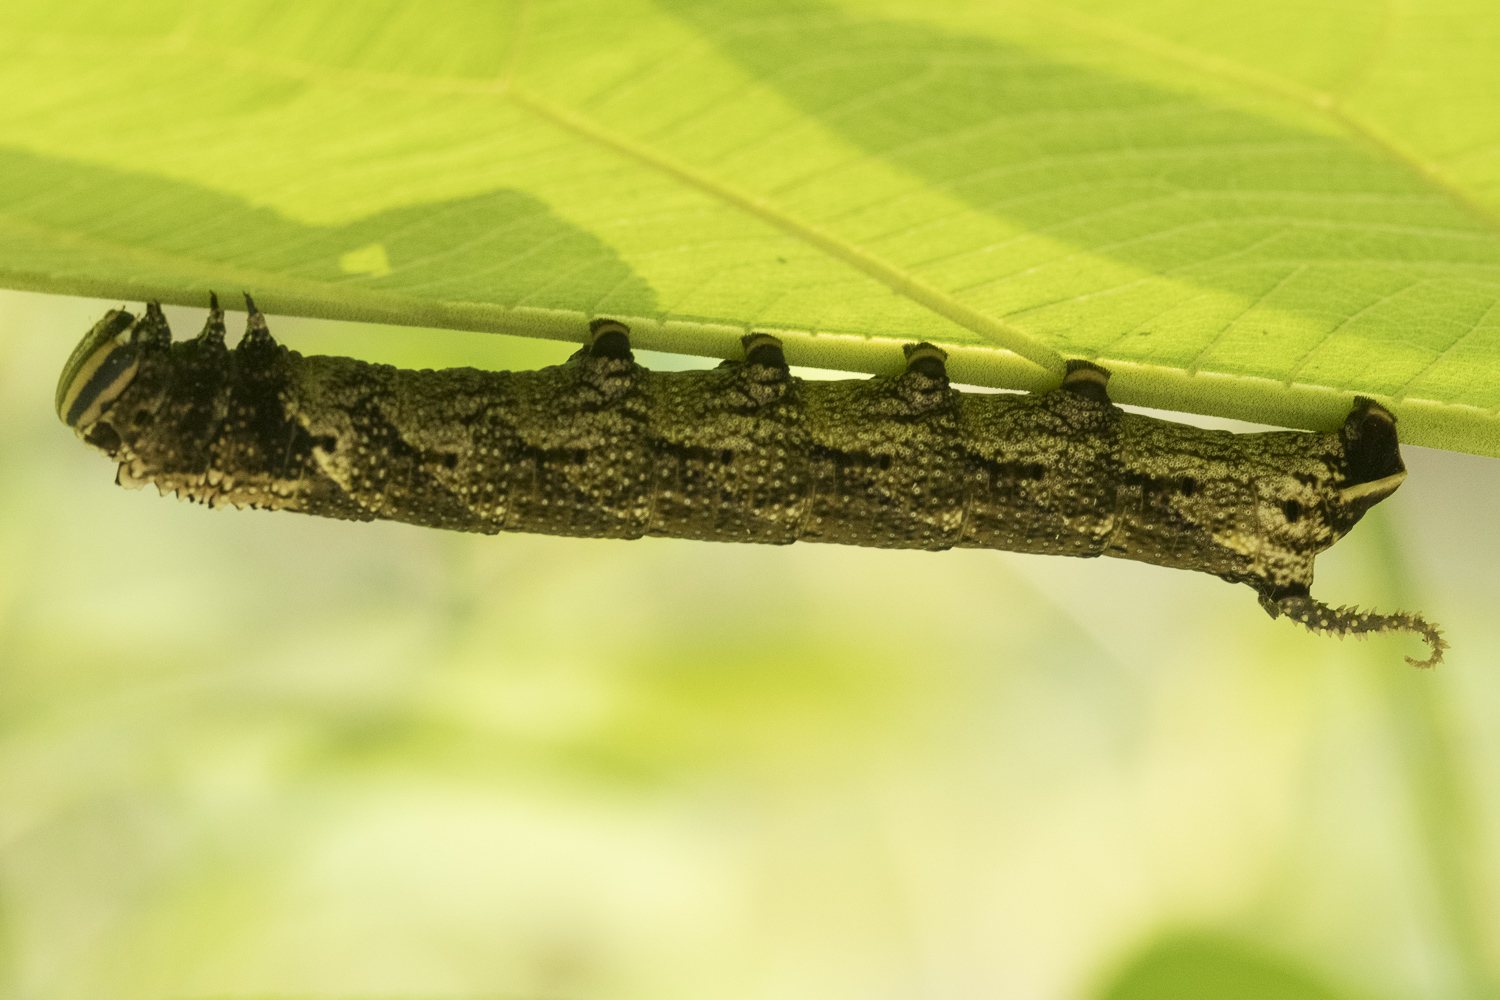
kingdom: Animalia
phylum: Arthropoda
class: Insecta
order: Lepidoptera
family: Sphingidae
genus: Acherontia
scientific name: Acherontia lachesis
